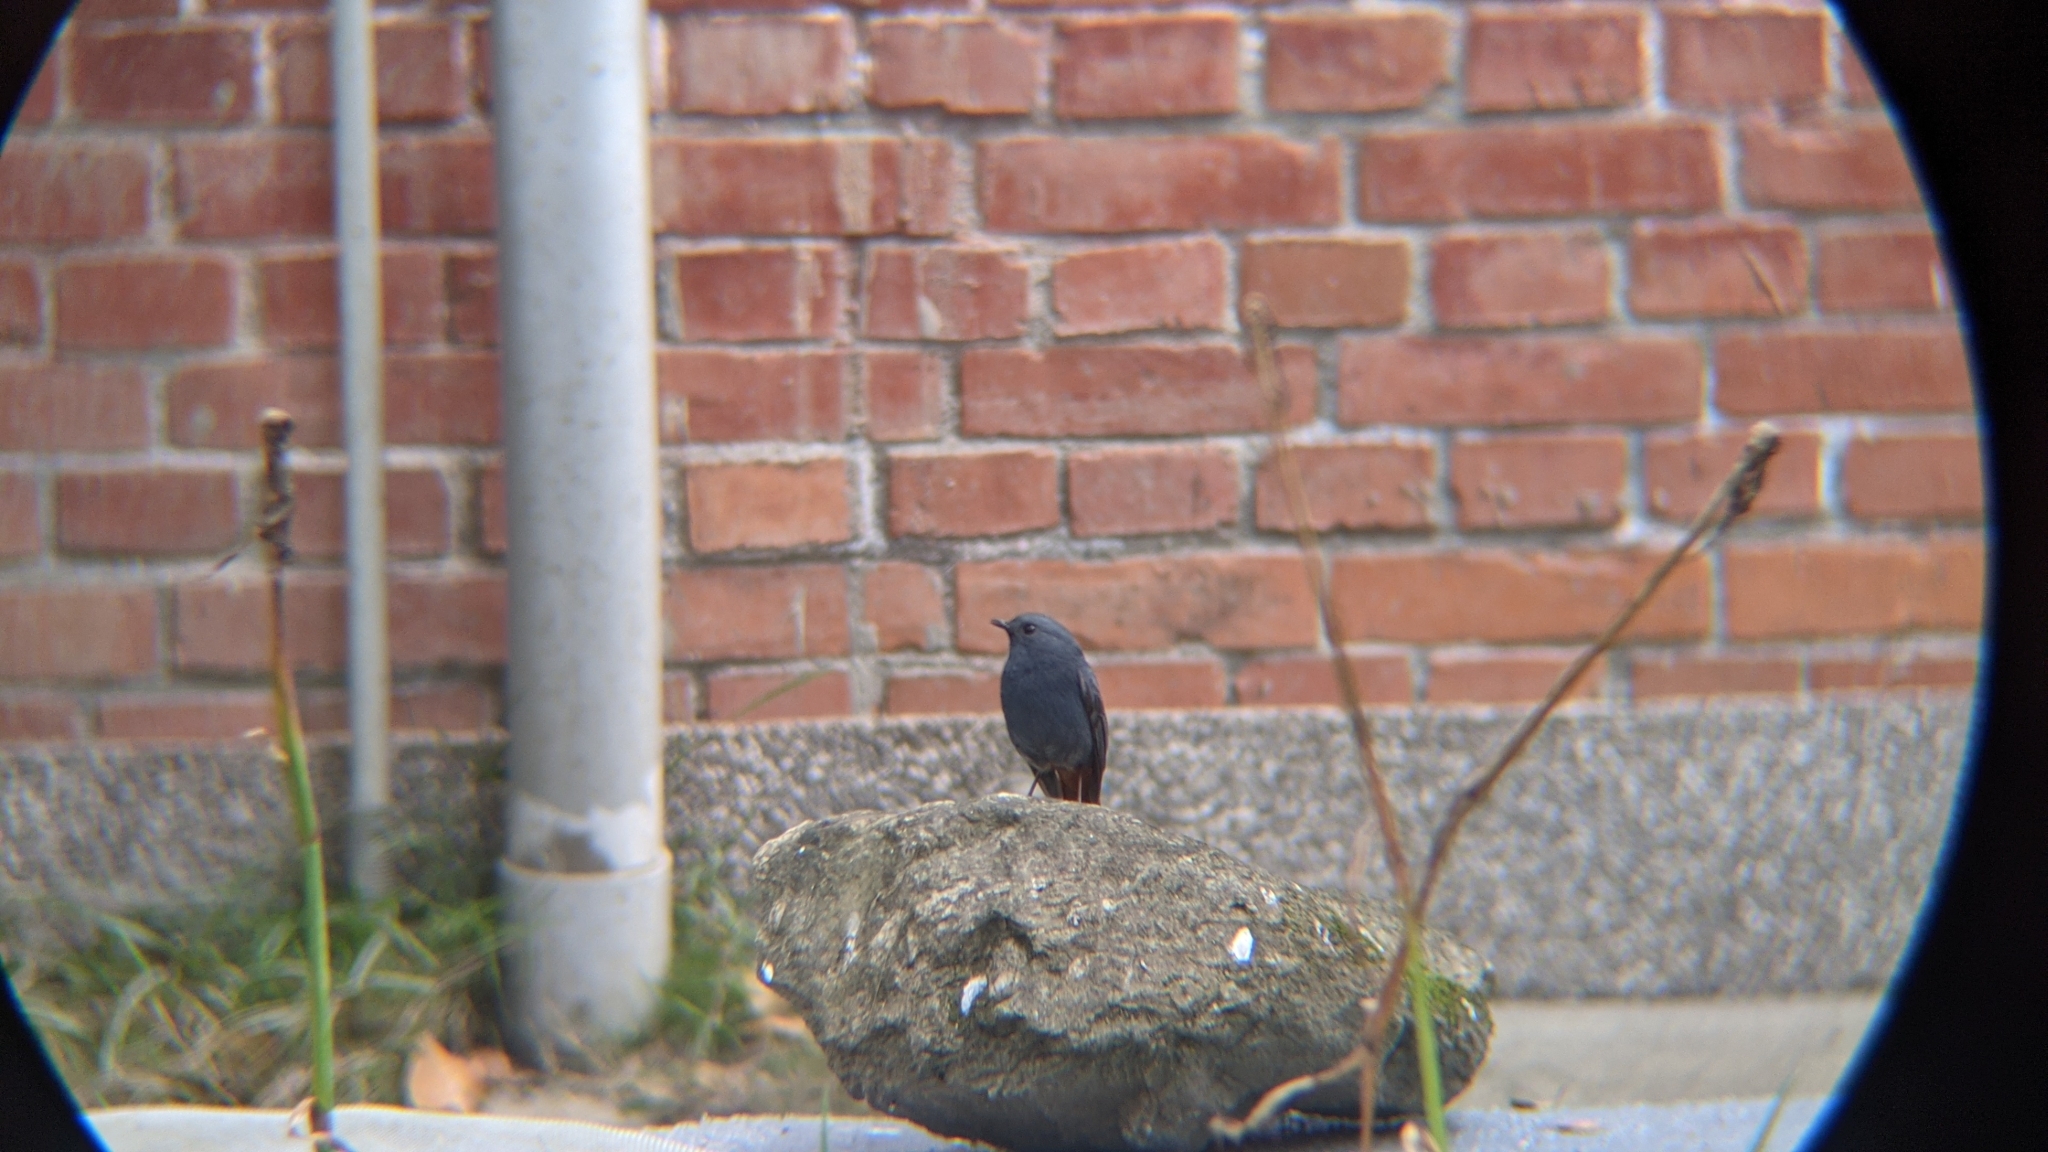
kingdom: Animalia
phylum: Chordata
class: Aves
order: Passeriformes
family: Muscicapidae
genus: Phoenicurus
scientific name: Phoenicurus fuliginosus
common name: Plumbeous water redstart
